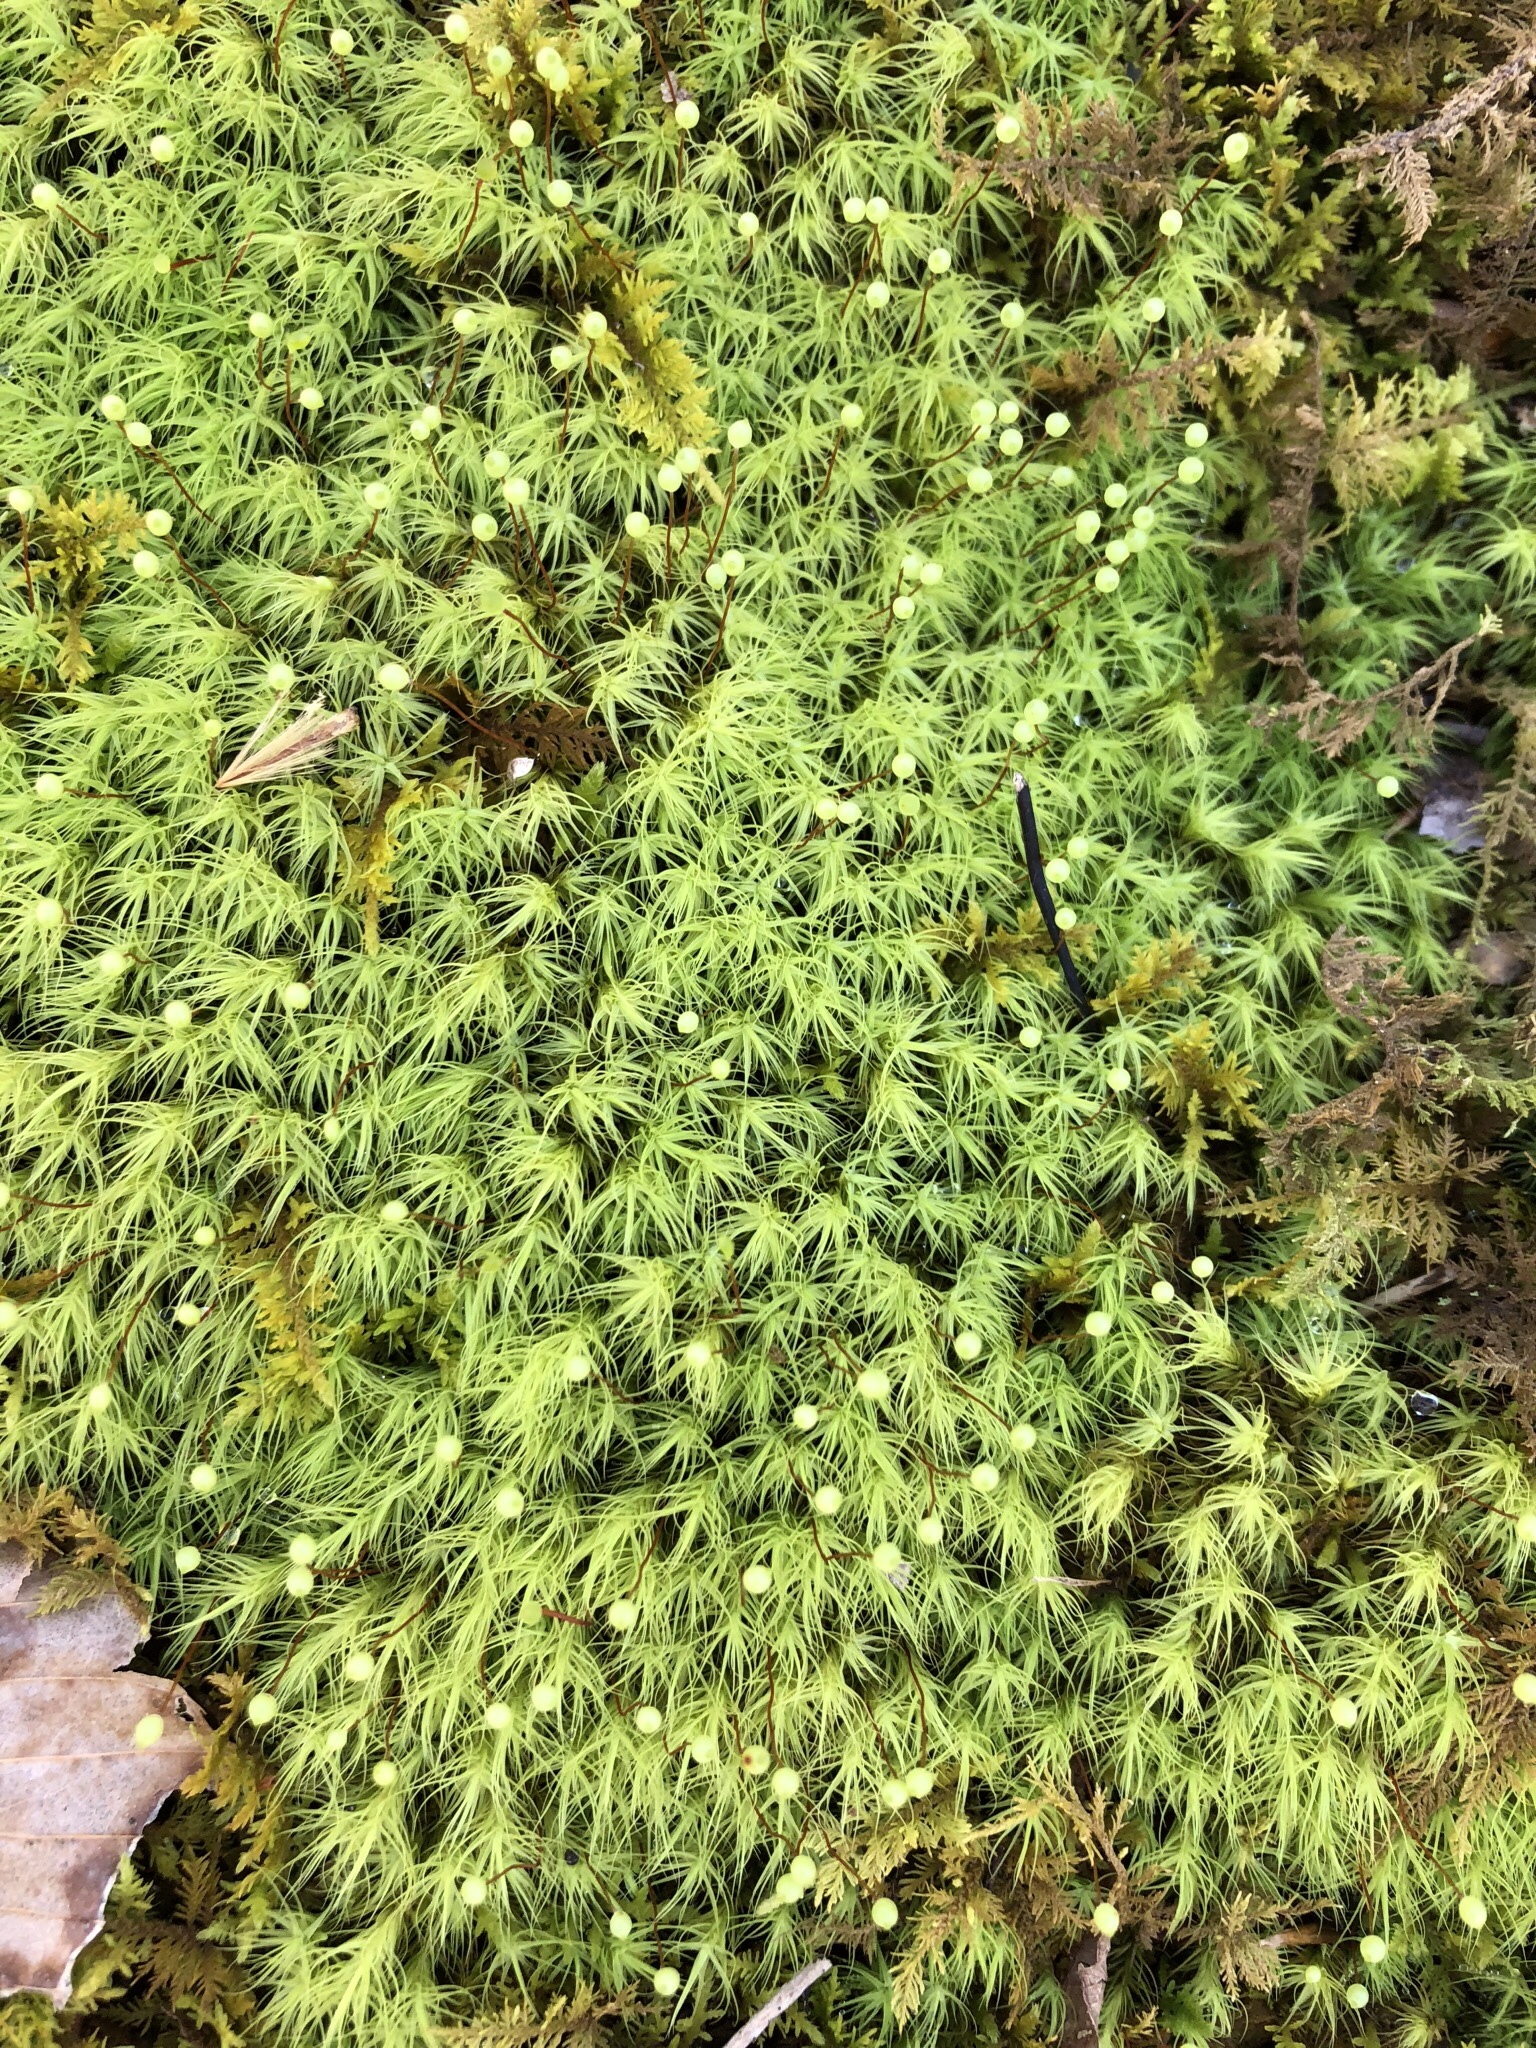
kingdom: Plantae
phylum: Bryophyta
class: Bryopsida
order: Bartramiales
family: Bartramiaceae
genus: Bartramia
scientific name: Bartramia ithyphylla
